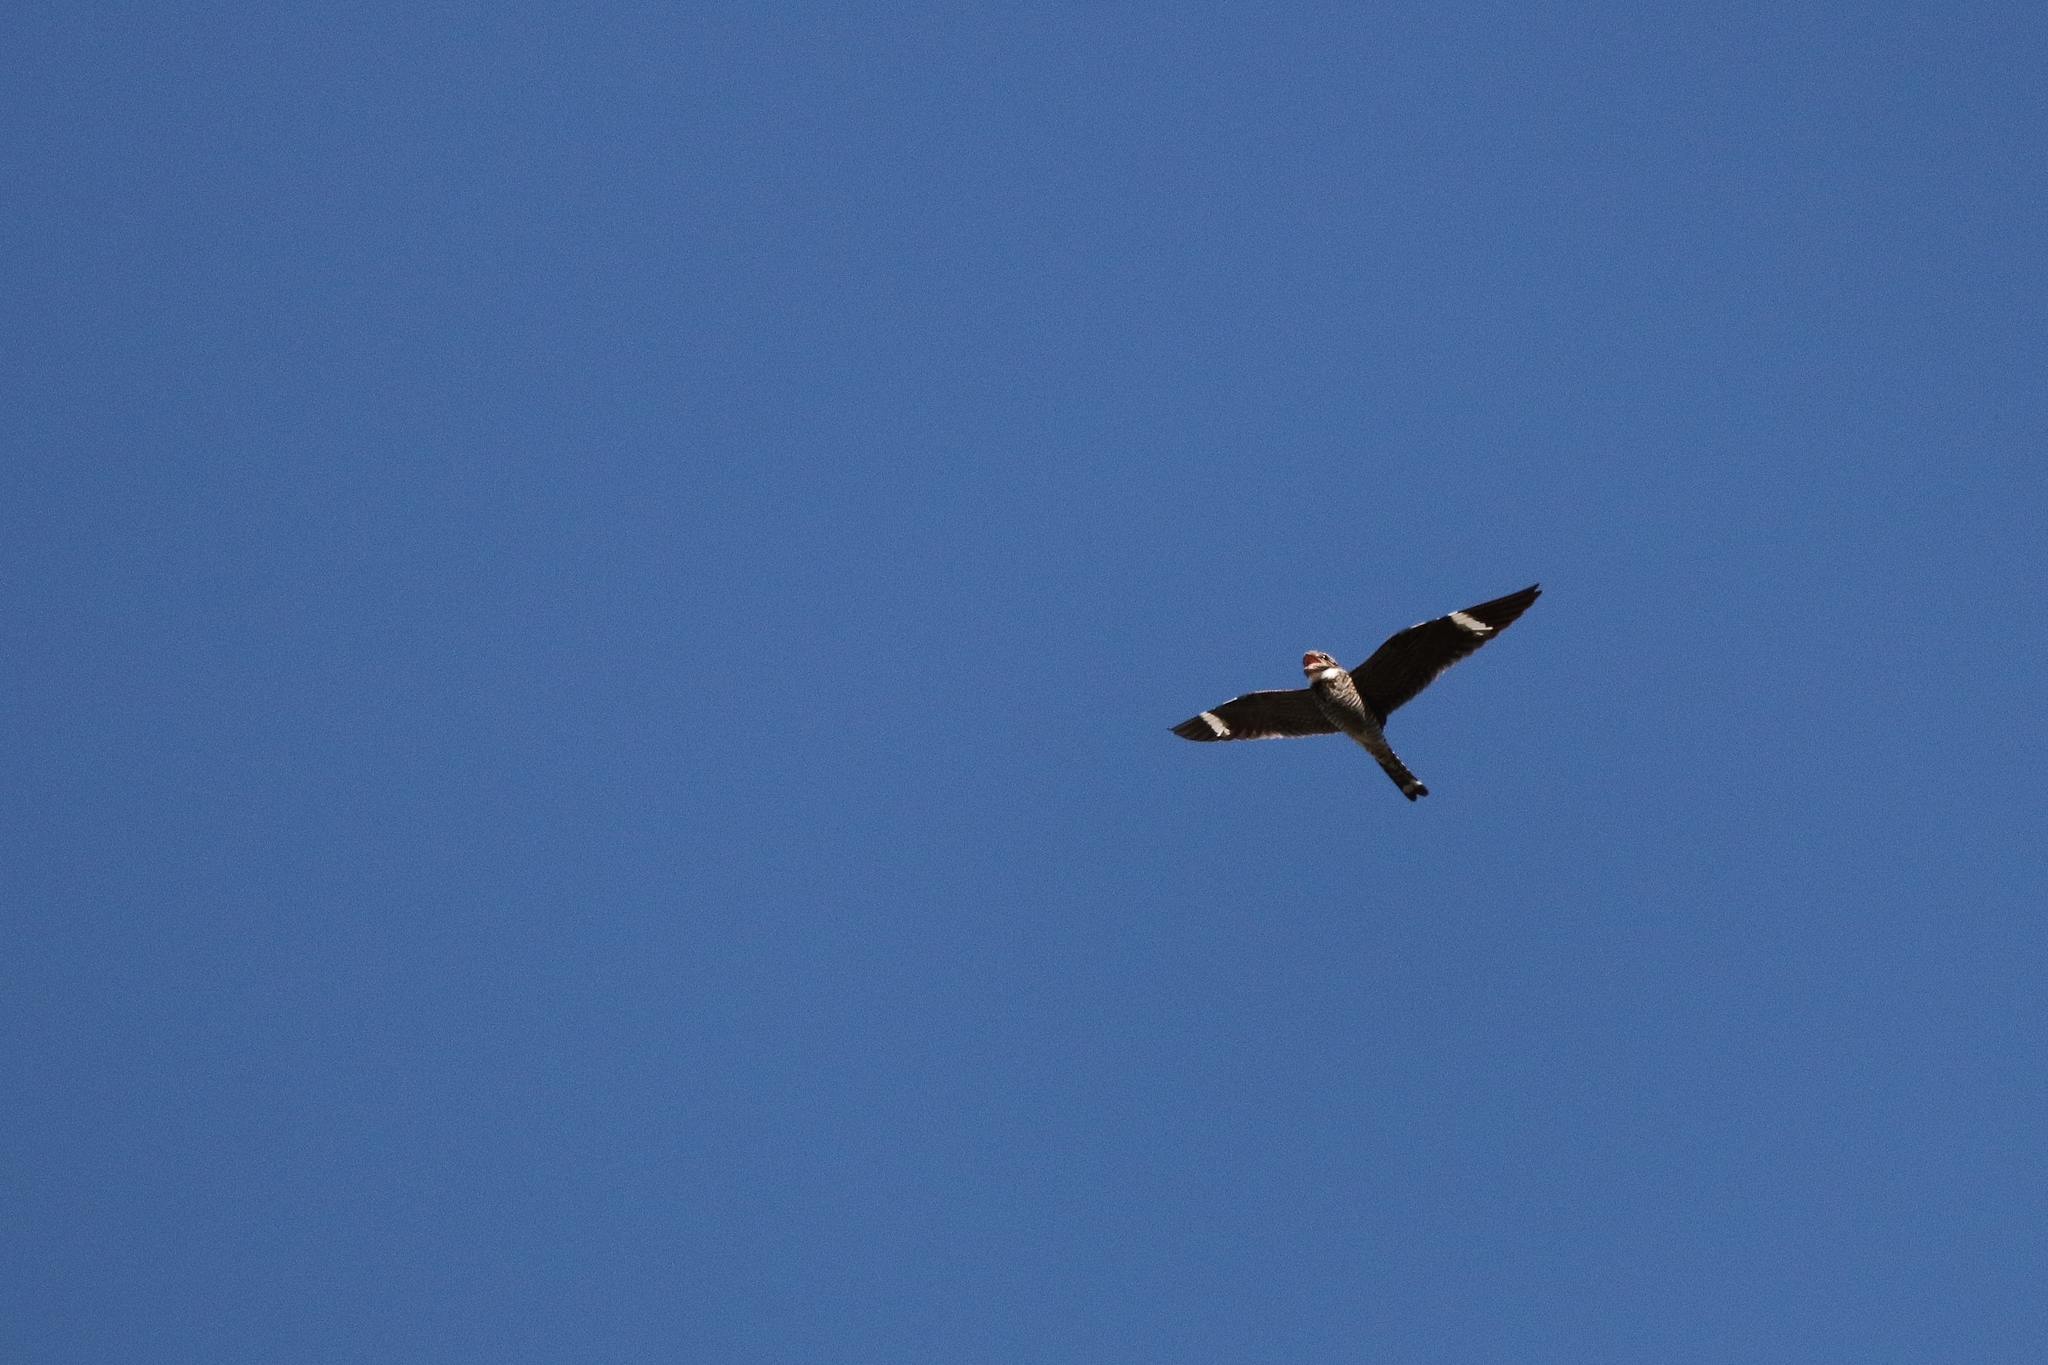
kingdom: Animalia
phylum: Chordata
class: Aves
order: Caprimulgiformes
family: Caprimulgidae
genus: Chordeiles
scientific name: Chordeiles minor
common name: Common nighthawk
